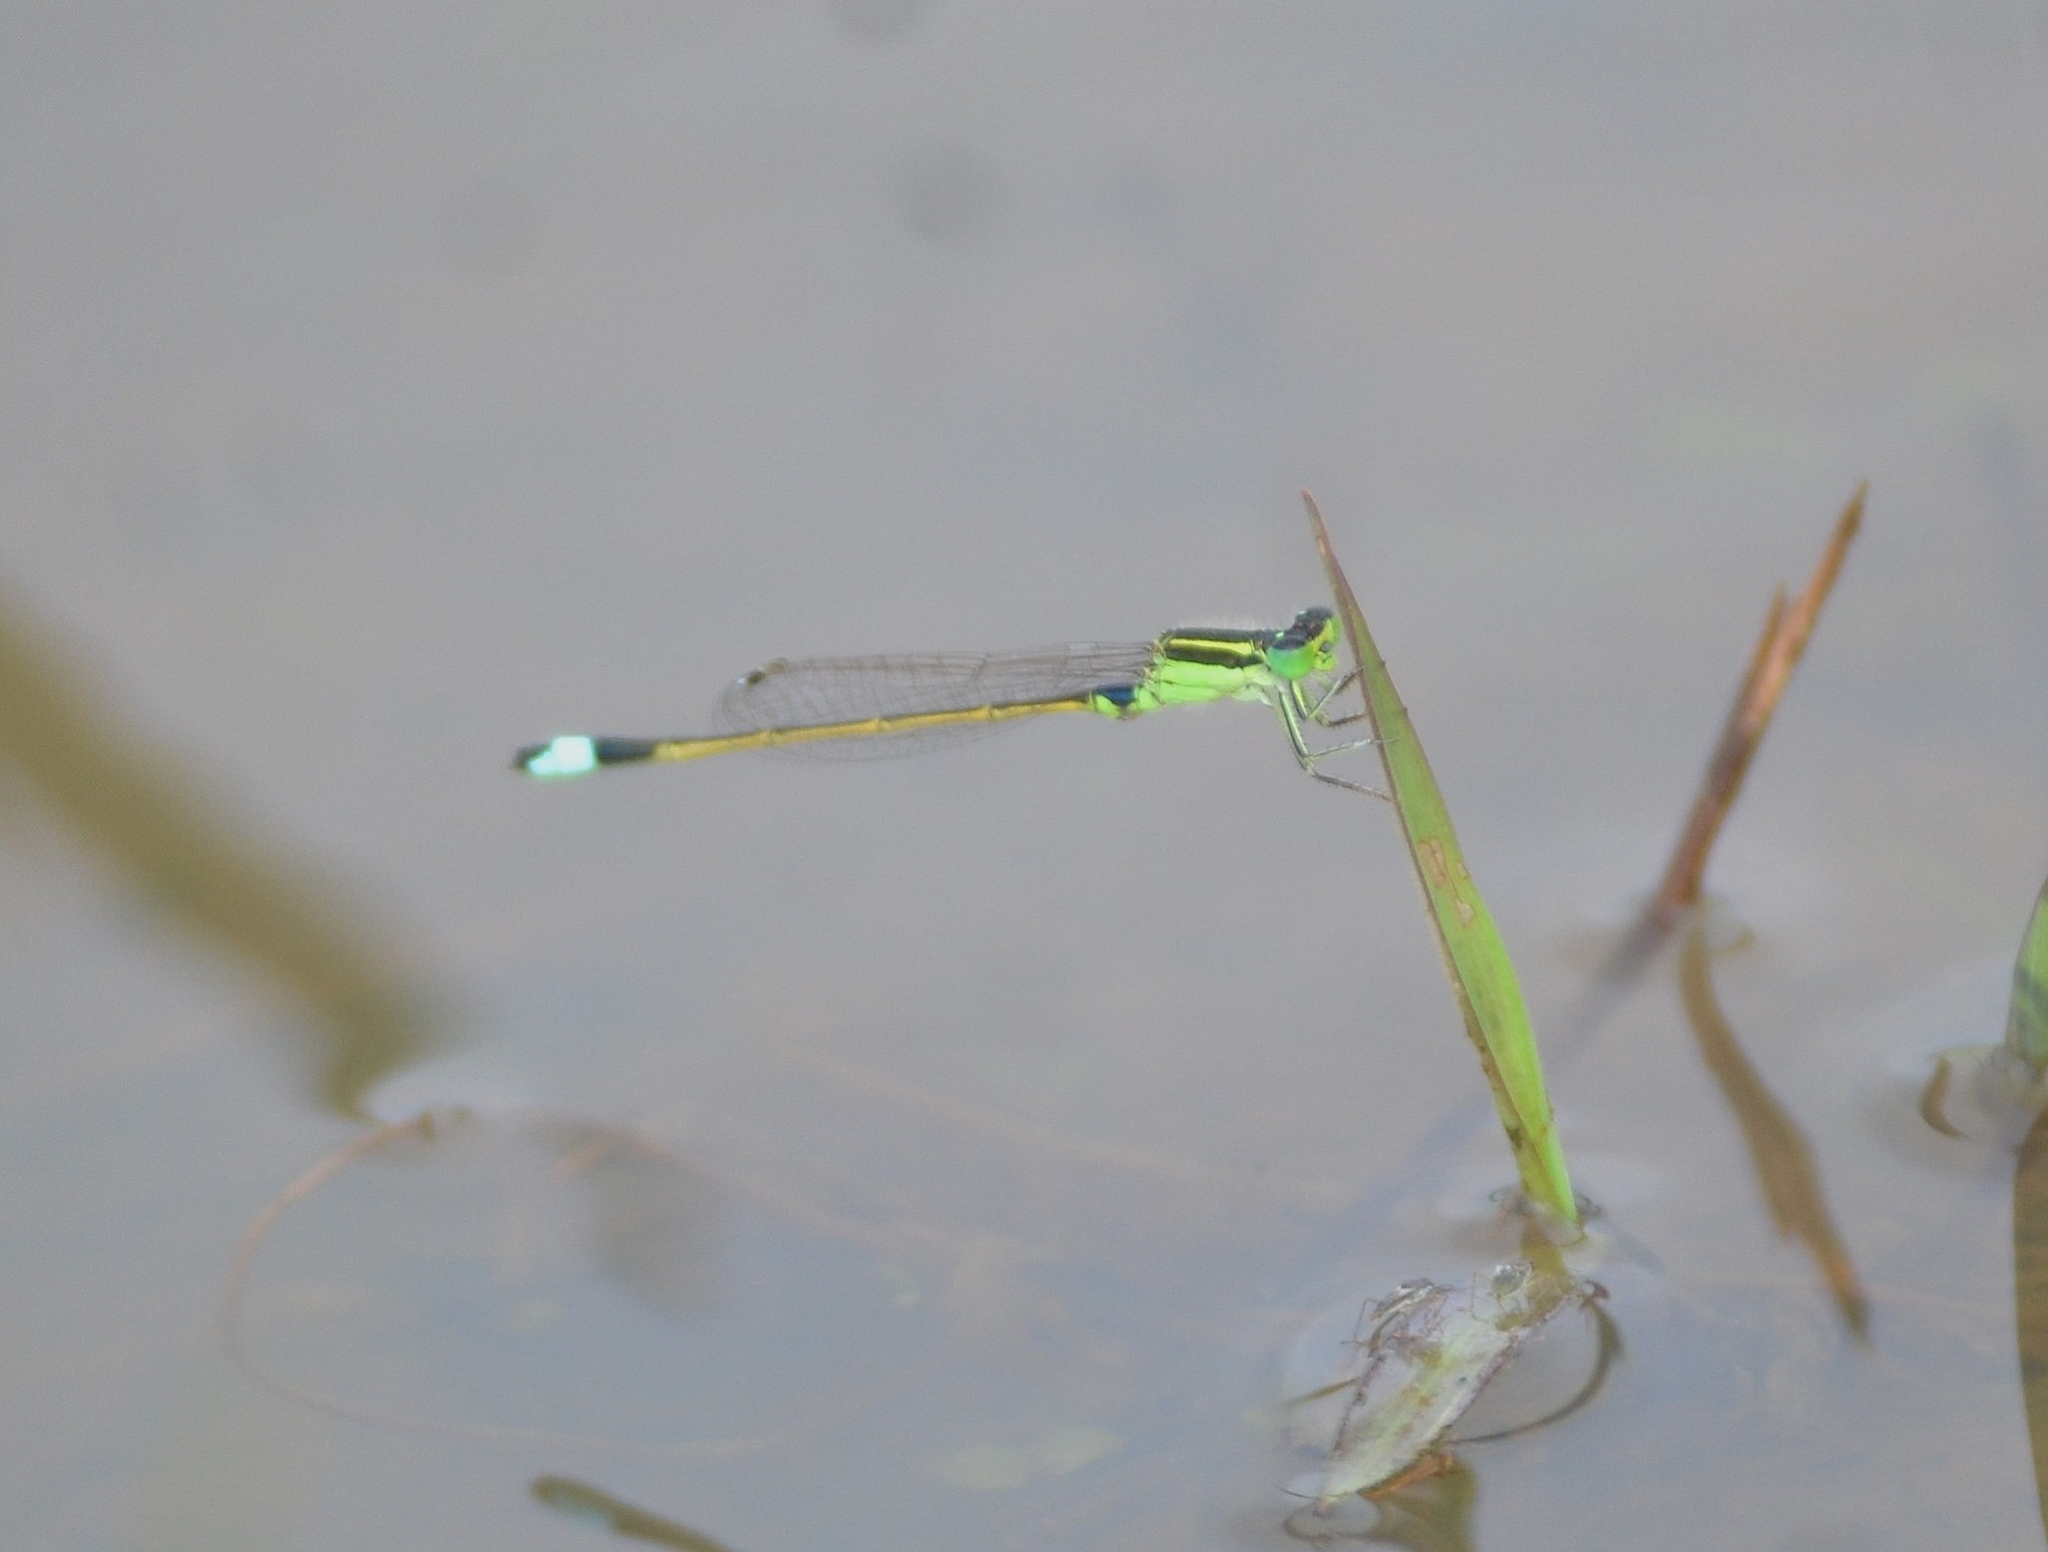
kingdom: Animalia
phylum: Arthropoda
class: Insecta
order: Odonata
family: Coenagrionidae
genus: Ischnura
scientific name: Ischnura senegalensis
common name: Tropical bluetail
